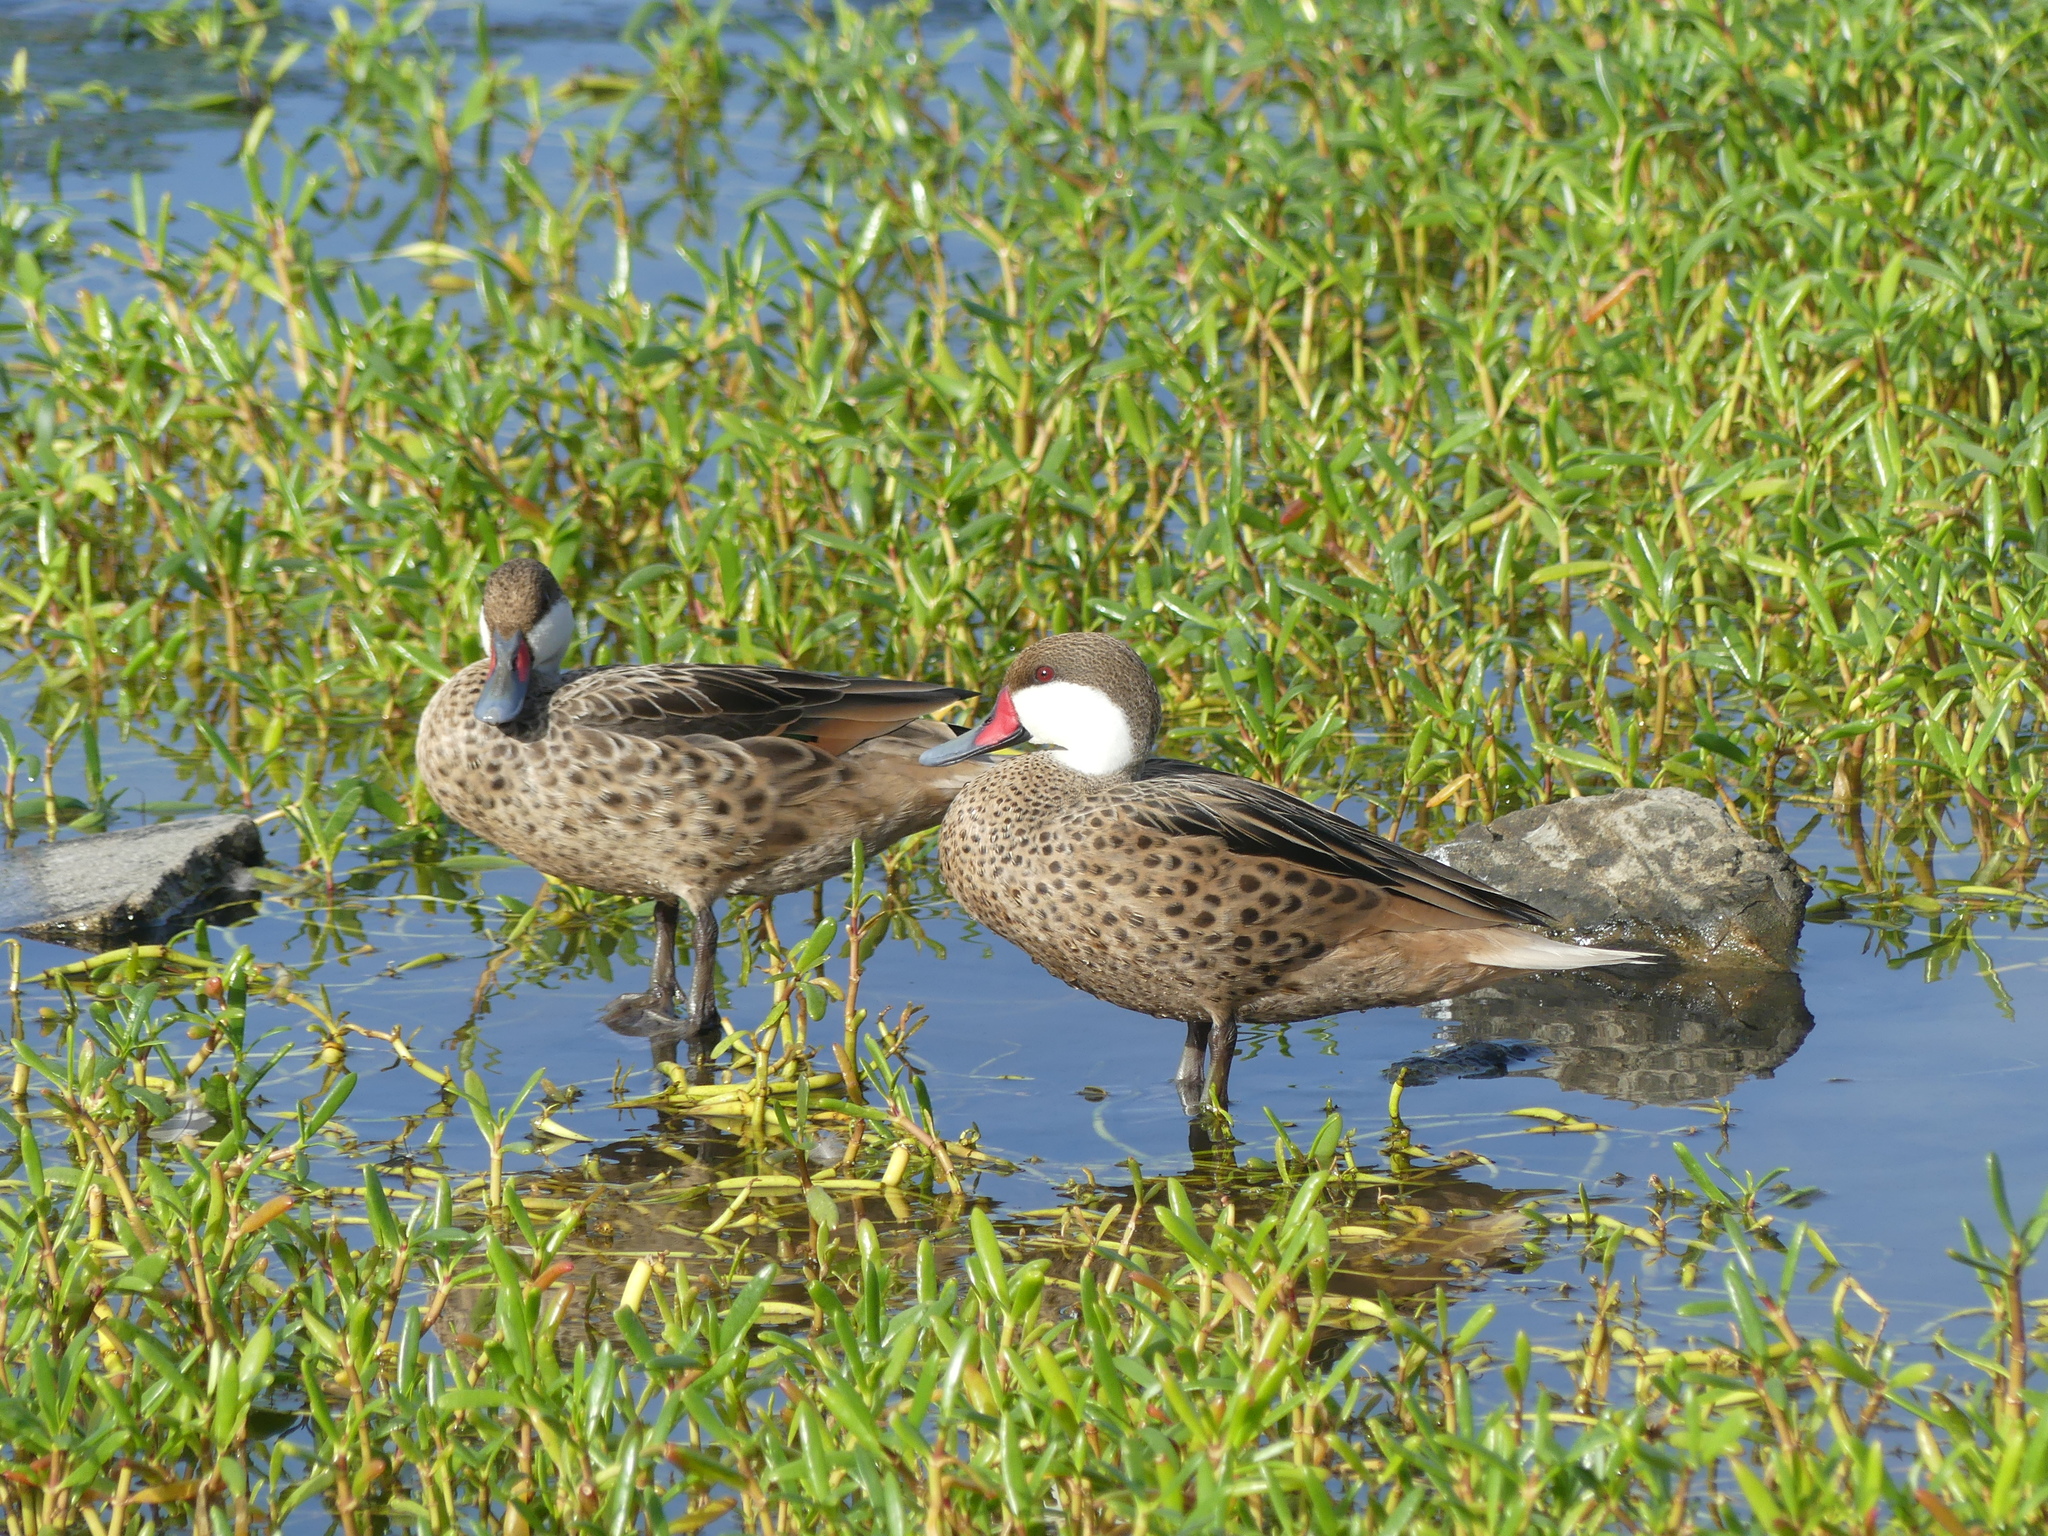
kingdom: Animalia
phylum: Chordata
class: Aves
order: Anseriformes
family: Anatidae
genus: Anas
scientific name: Anas bahamensis
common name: White-cheeked pintail
